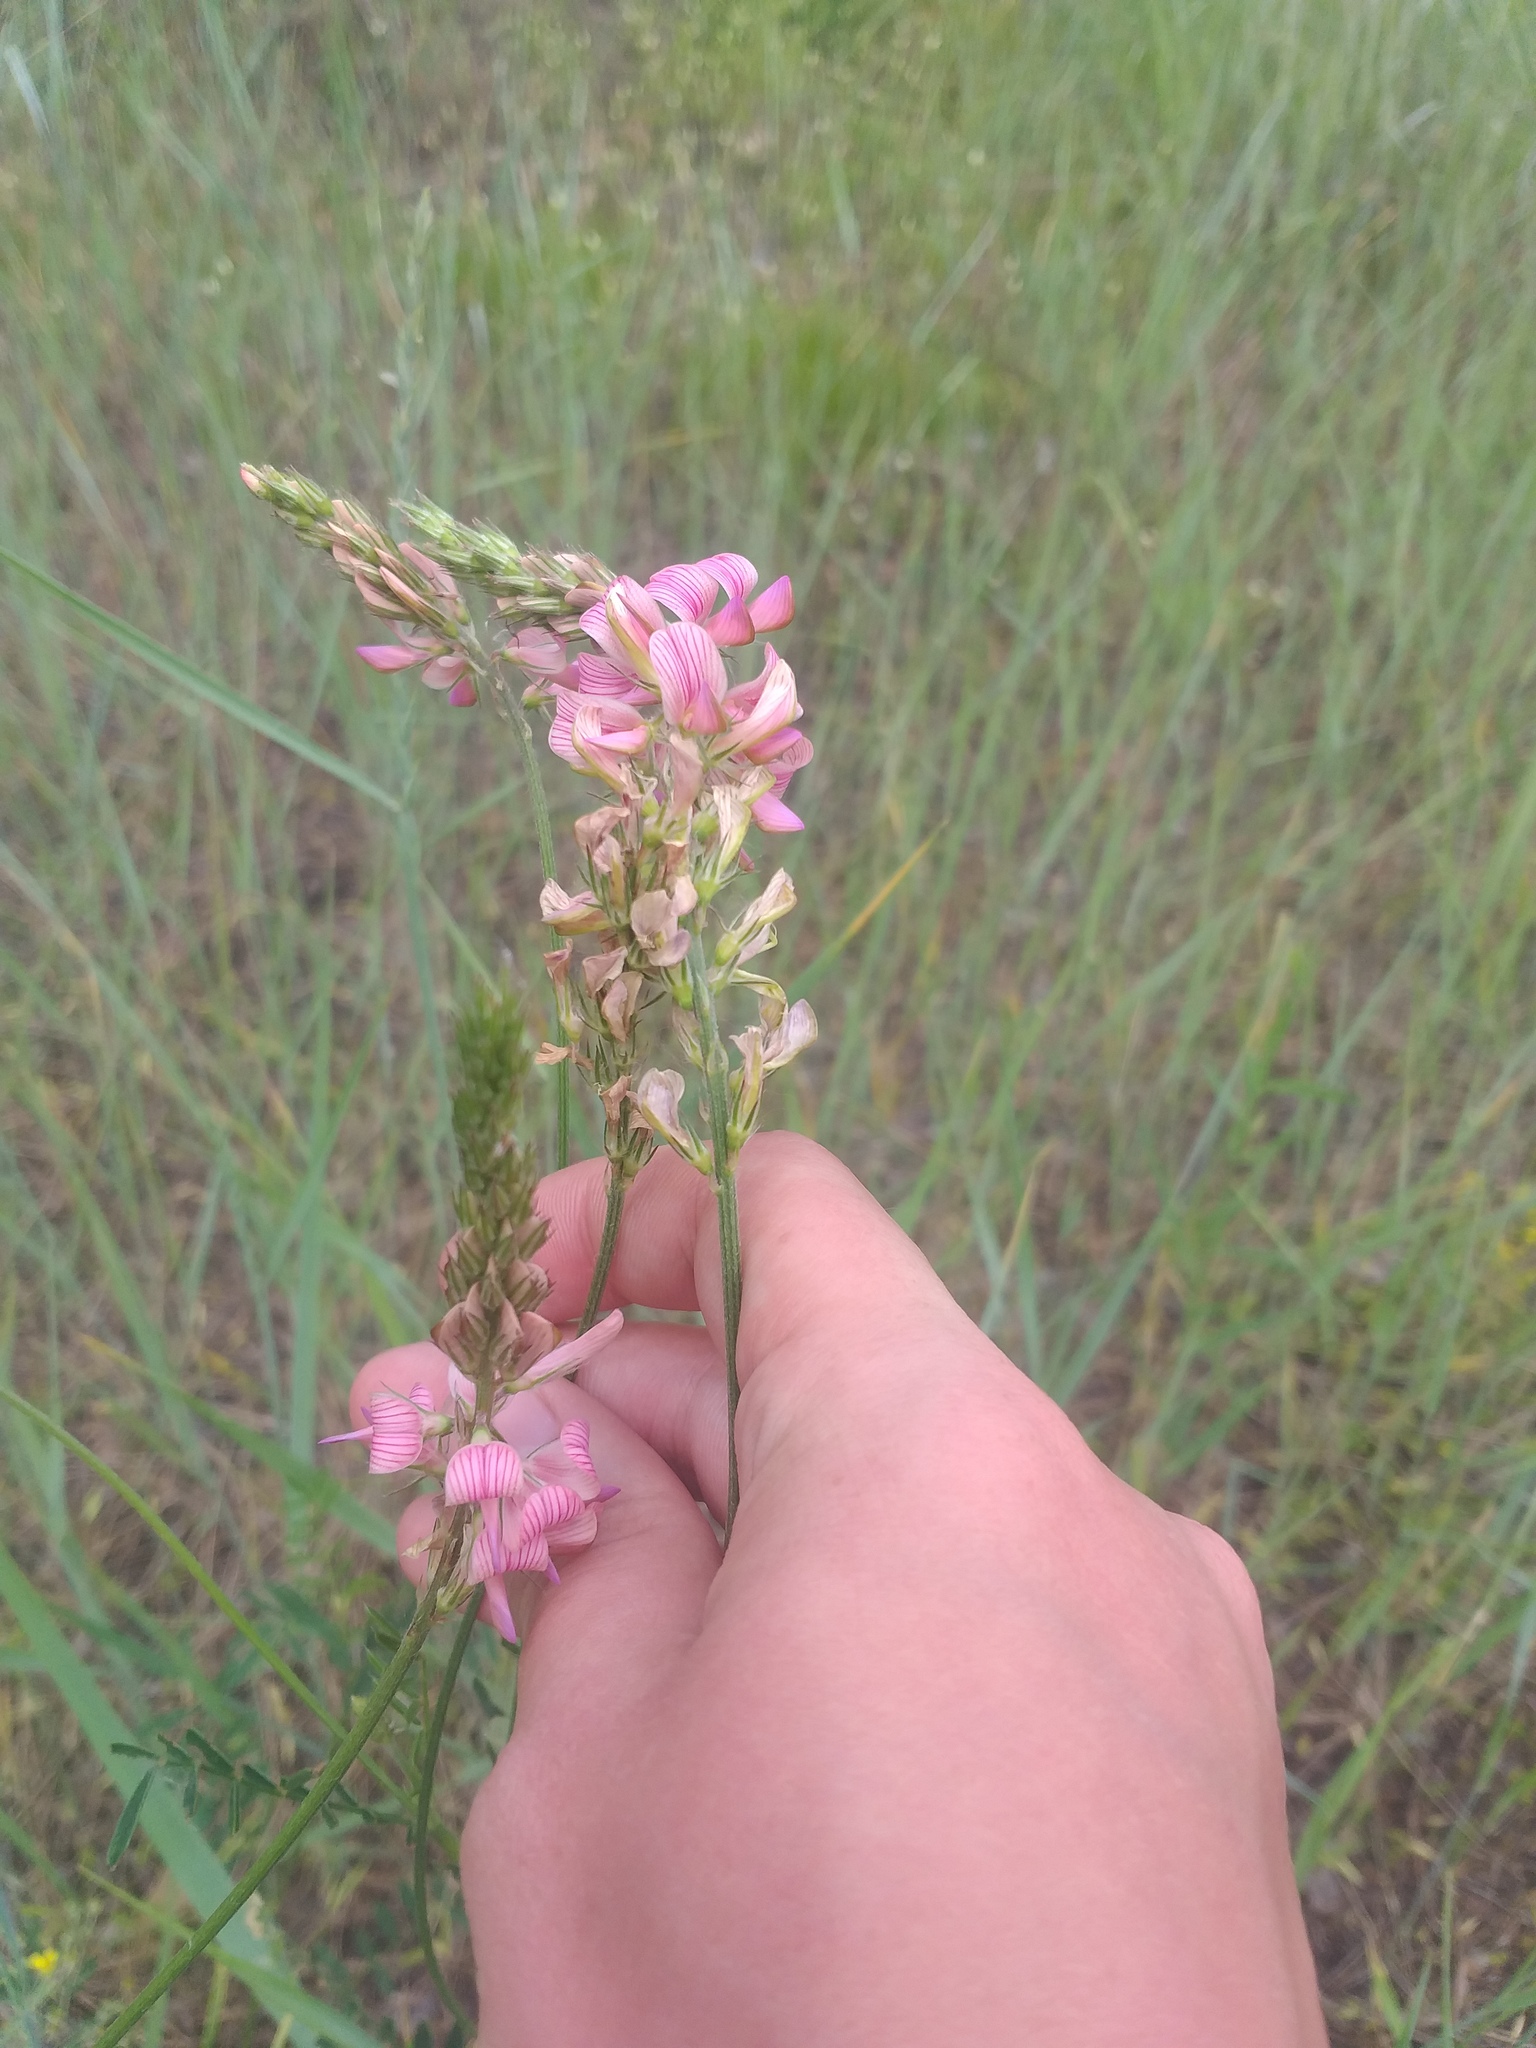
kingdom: Plantae
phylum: Tracheophyta
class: Magnoliopsida
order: Fabales
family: Fabaceae
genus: Onobrychis
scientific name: Onobrychis viciifolia
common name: Sainfoin
